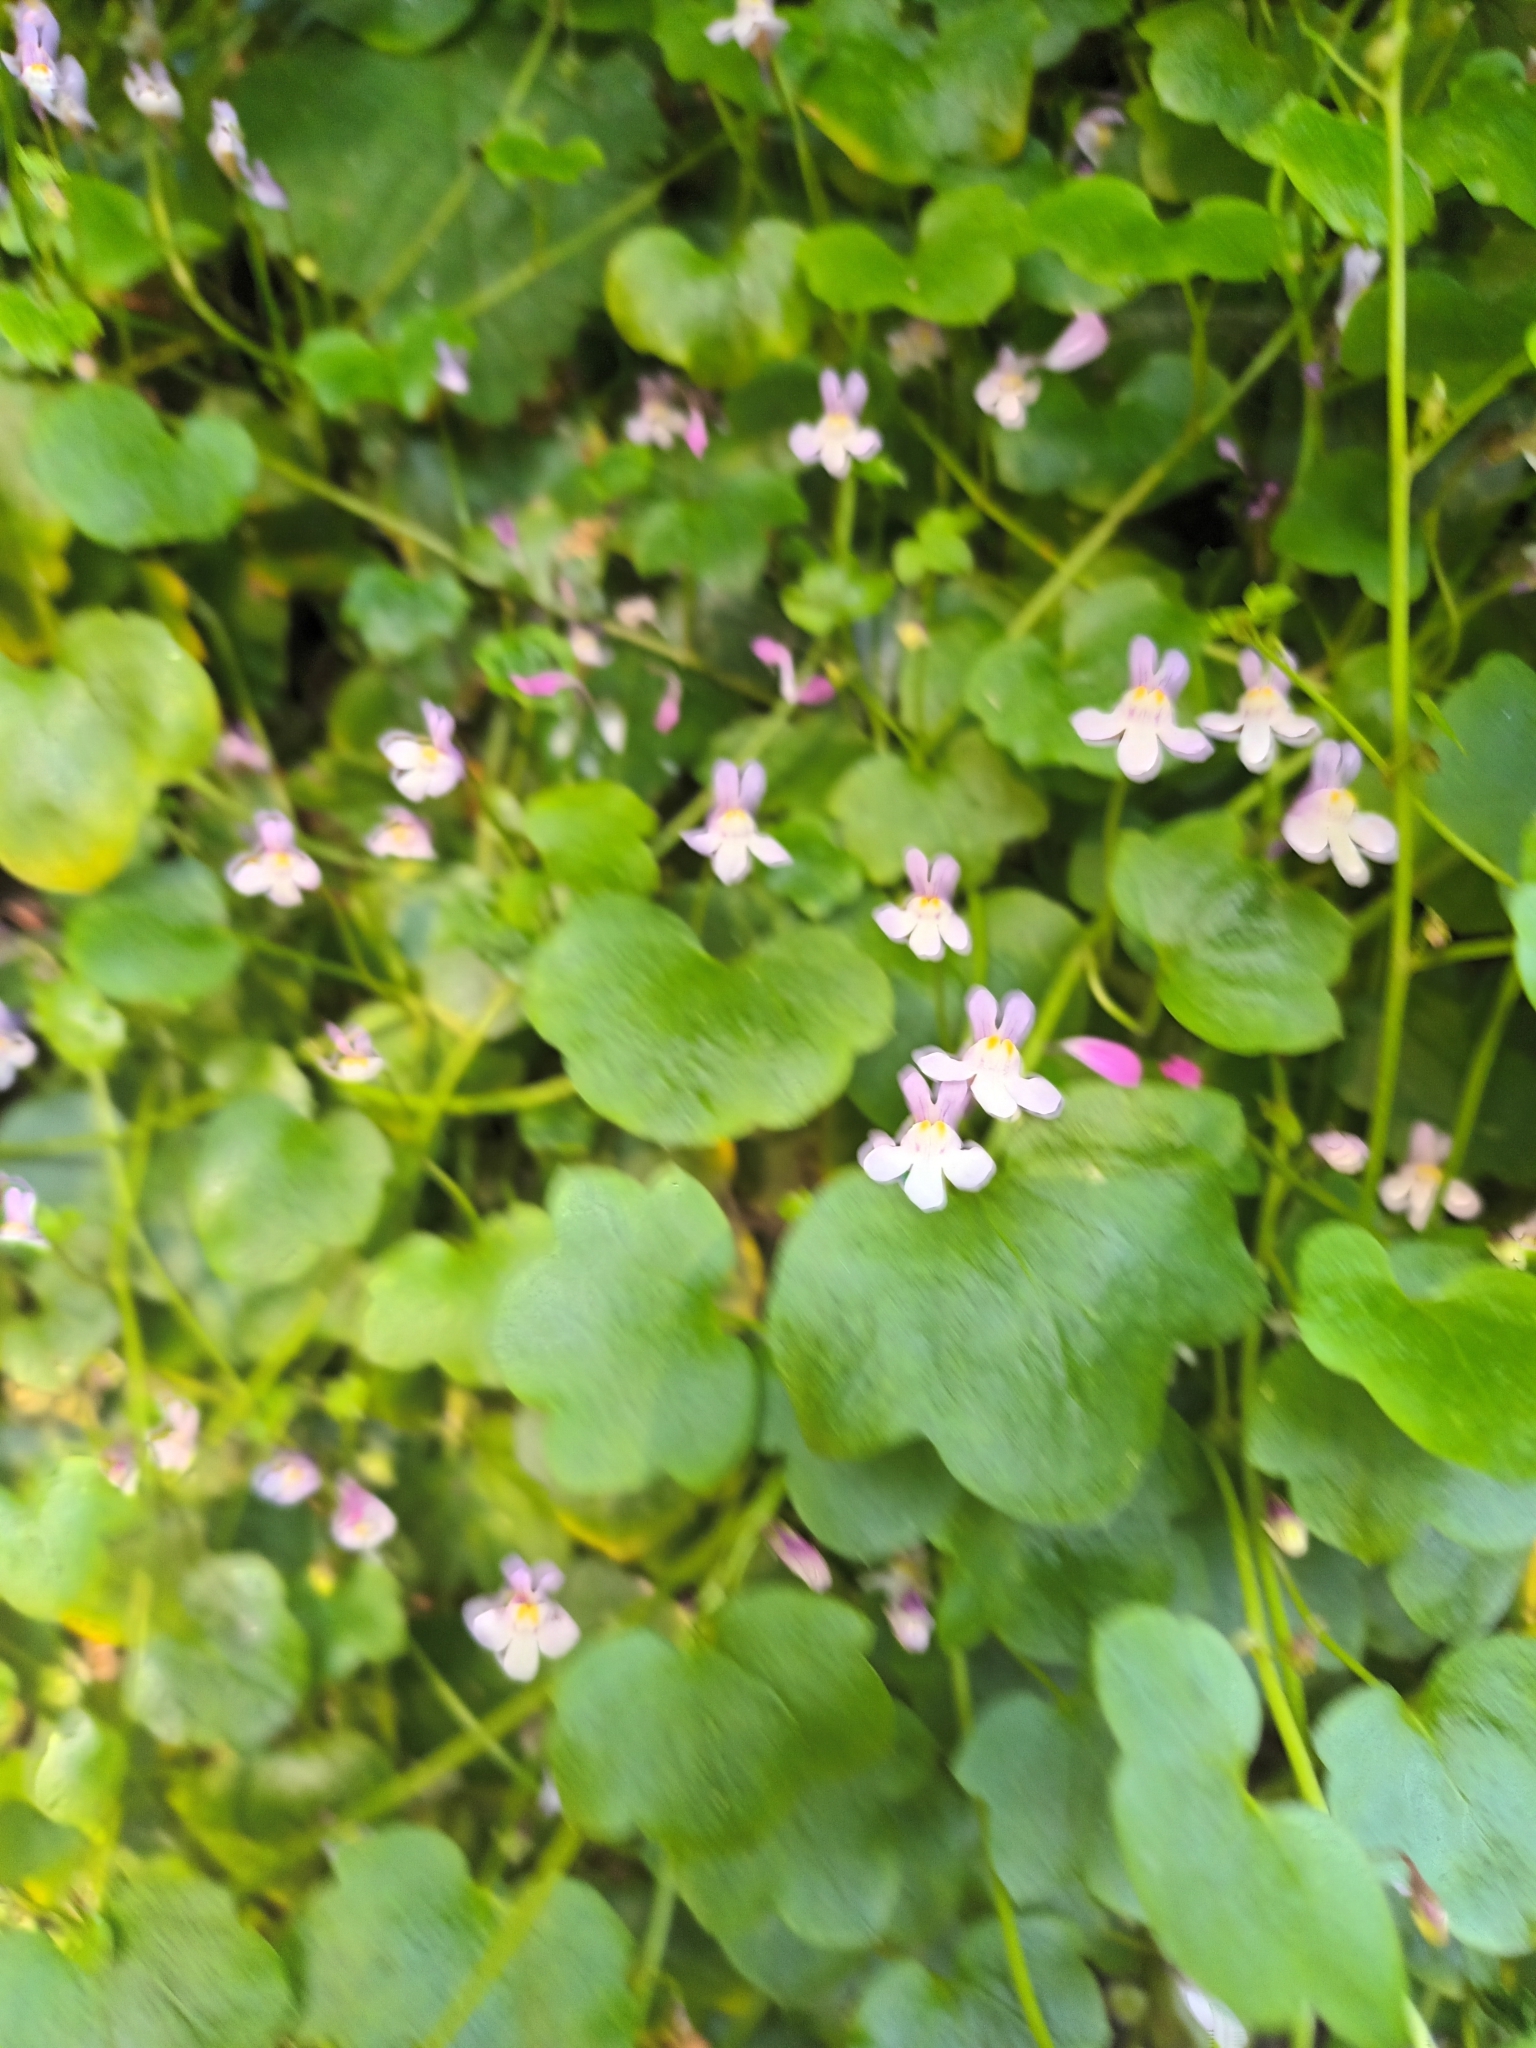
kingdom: Plantae
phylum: Tracheophyta
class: Magnoliopsida
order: Lamiales
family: Plantaginaceae
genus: Cymbalaria
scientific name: Cymbalaria muralis
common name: Ivy-leaved toadflax
